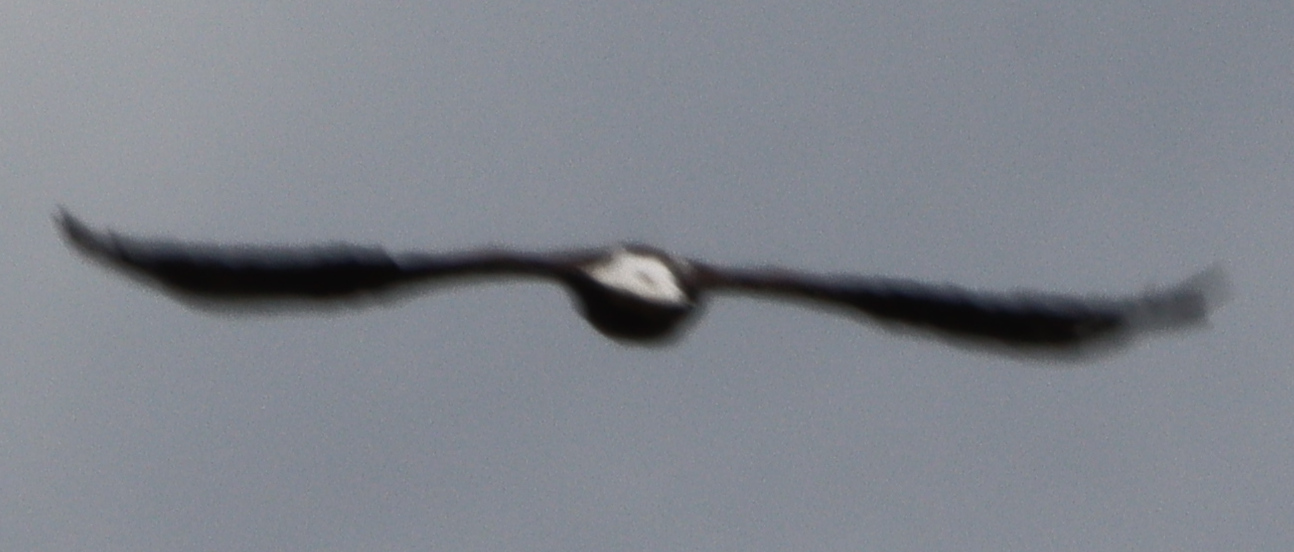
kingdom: Animalia
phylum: Chordata
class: Aves
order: Accipitriformes
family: Accipitridae
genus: Haliaeetus
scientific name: Haliaeetus leucocephalus
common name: Bald eagle
